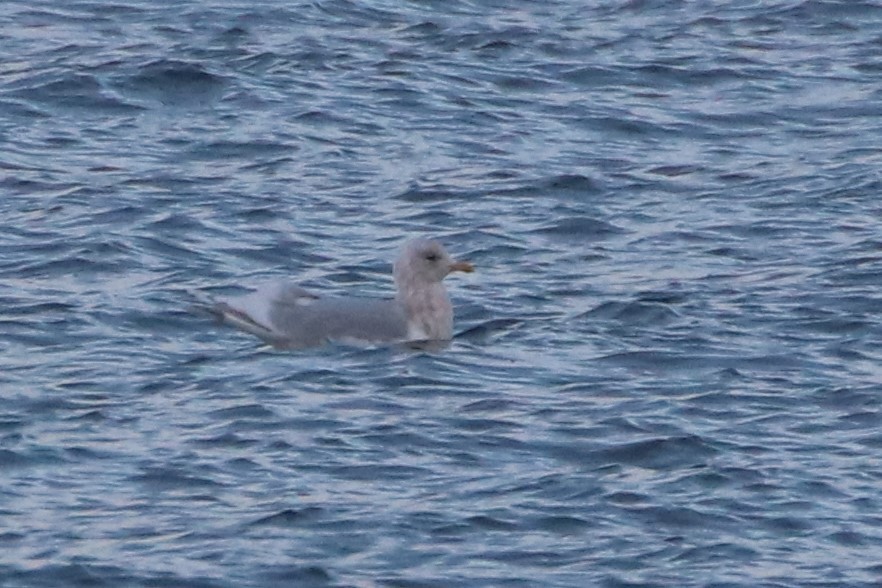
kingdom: Animalia
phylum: Chordata
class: Aves
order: Charadriiformes
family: Laridae
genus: Larus
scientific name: Larus glaucoides
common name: Iceland gull
